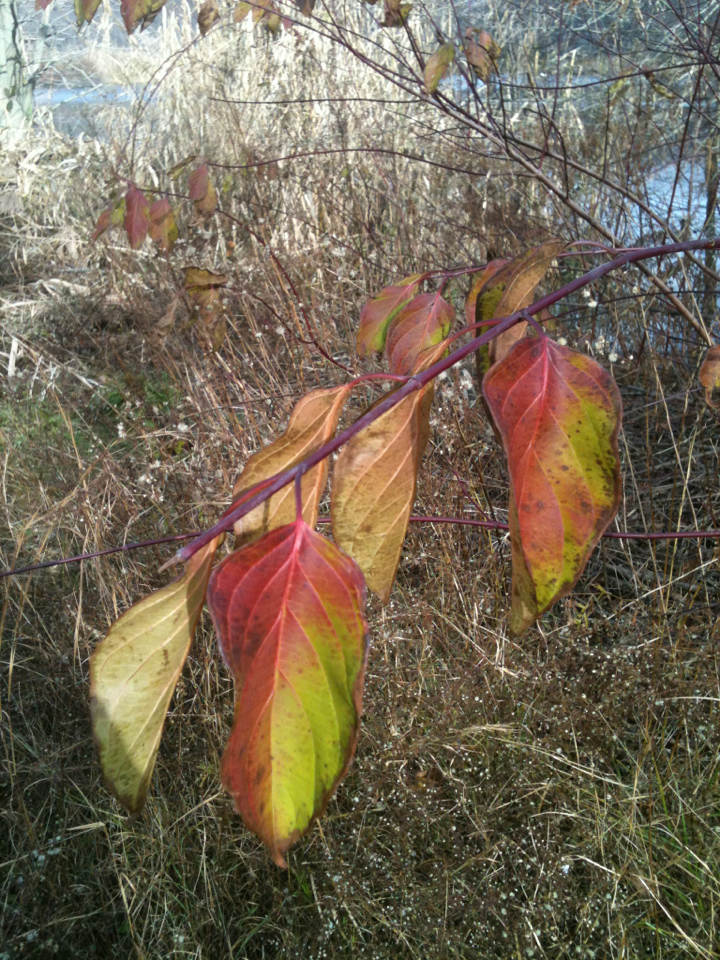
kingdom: Plantae
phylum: Tracheophyta
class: Magnoliopsida
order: Cornales
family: Cornaceae
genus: Cornus
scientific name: Cornus amomum
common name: Silky dogwood
